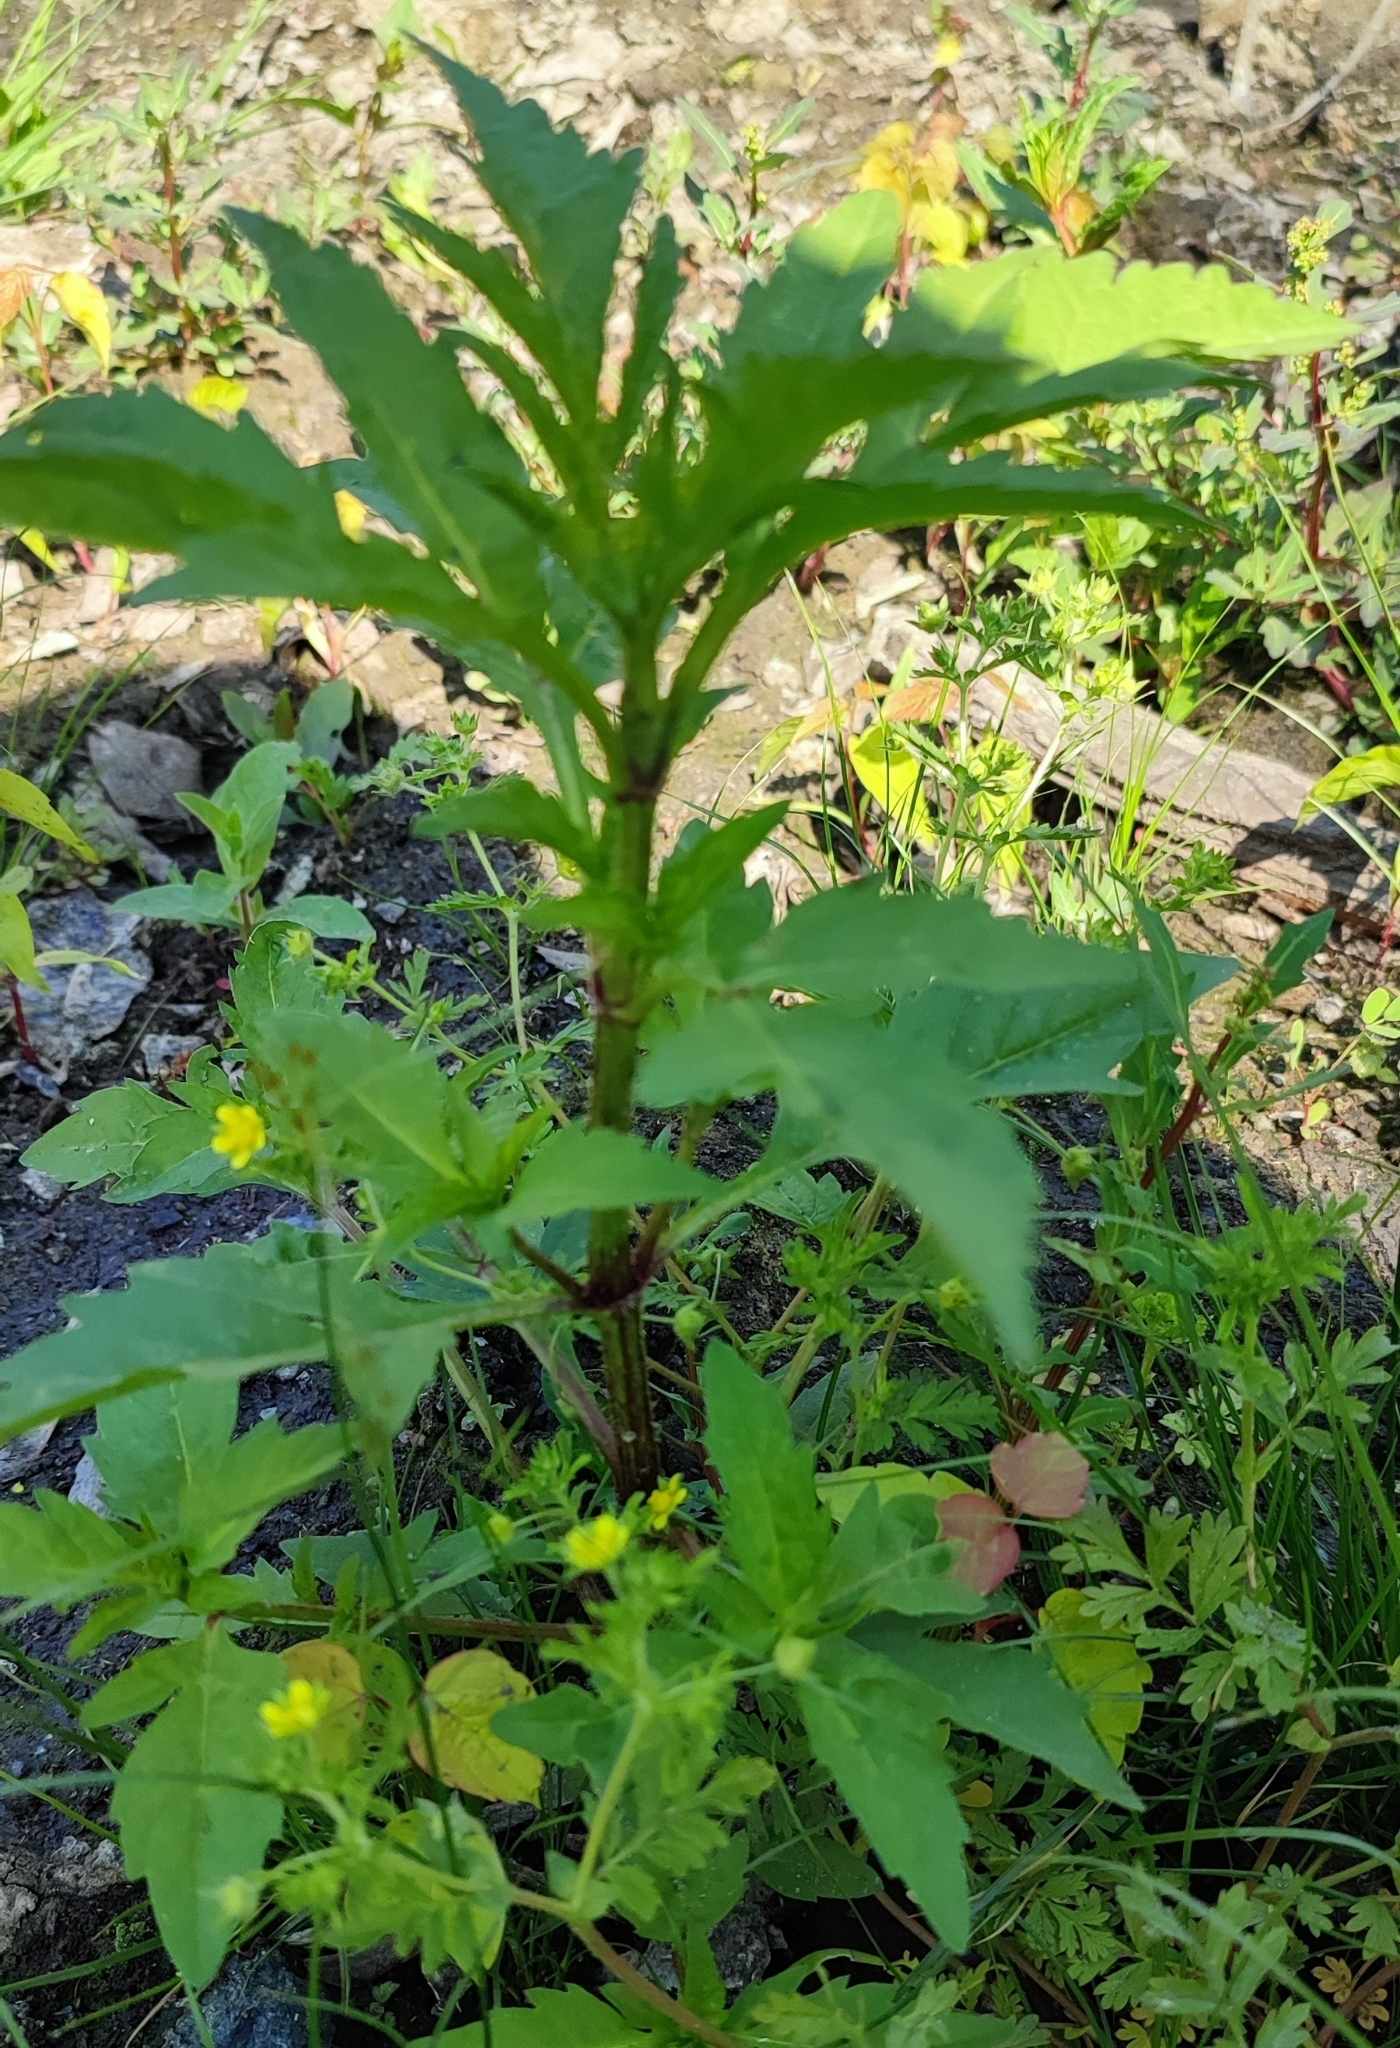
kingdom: Plantae
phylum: Tracheophyta
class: Magnoliopsida
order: Asterales
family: Asteraceae
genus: Bidens
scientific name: Bidens tripartita
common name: Trifid bur-marigold
